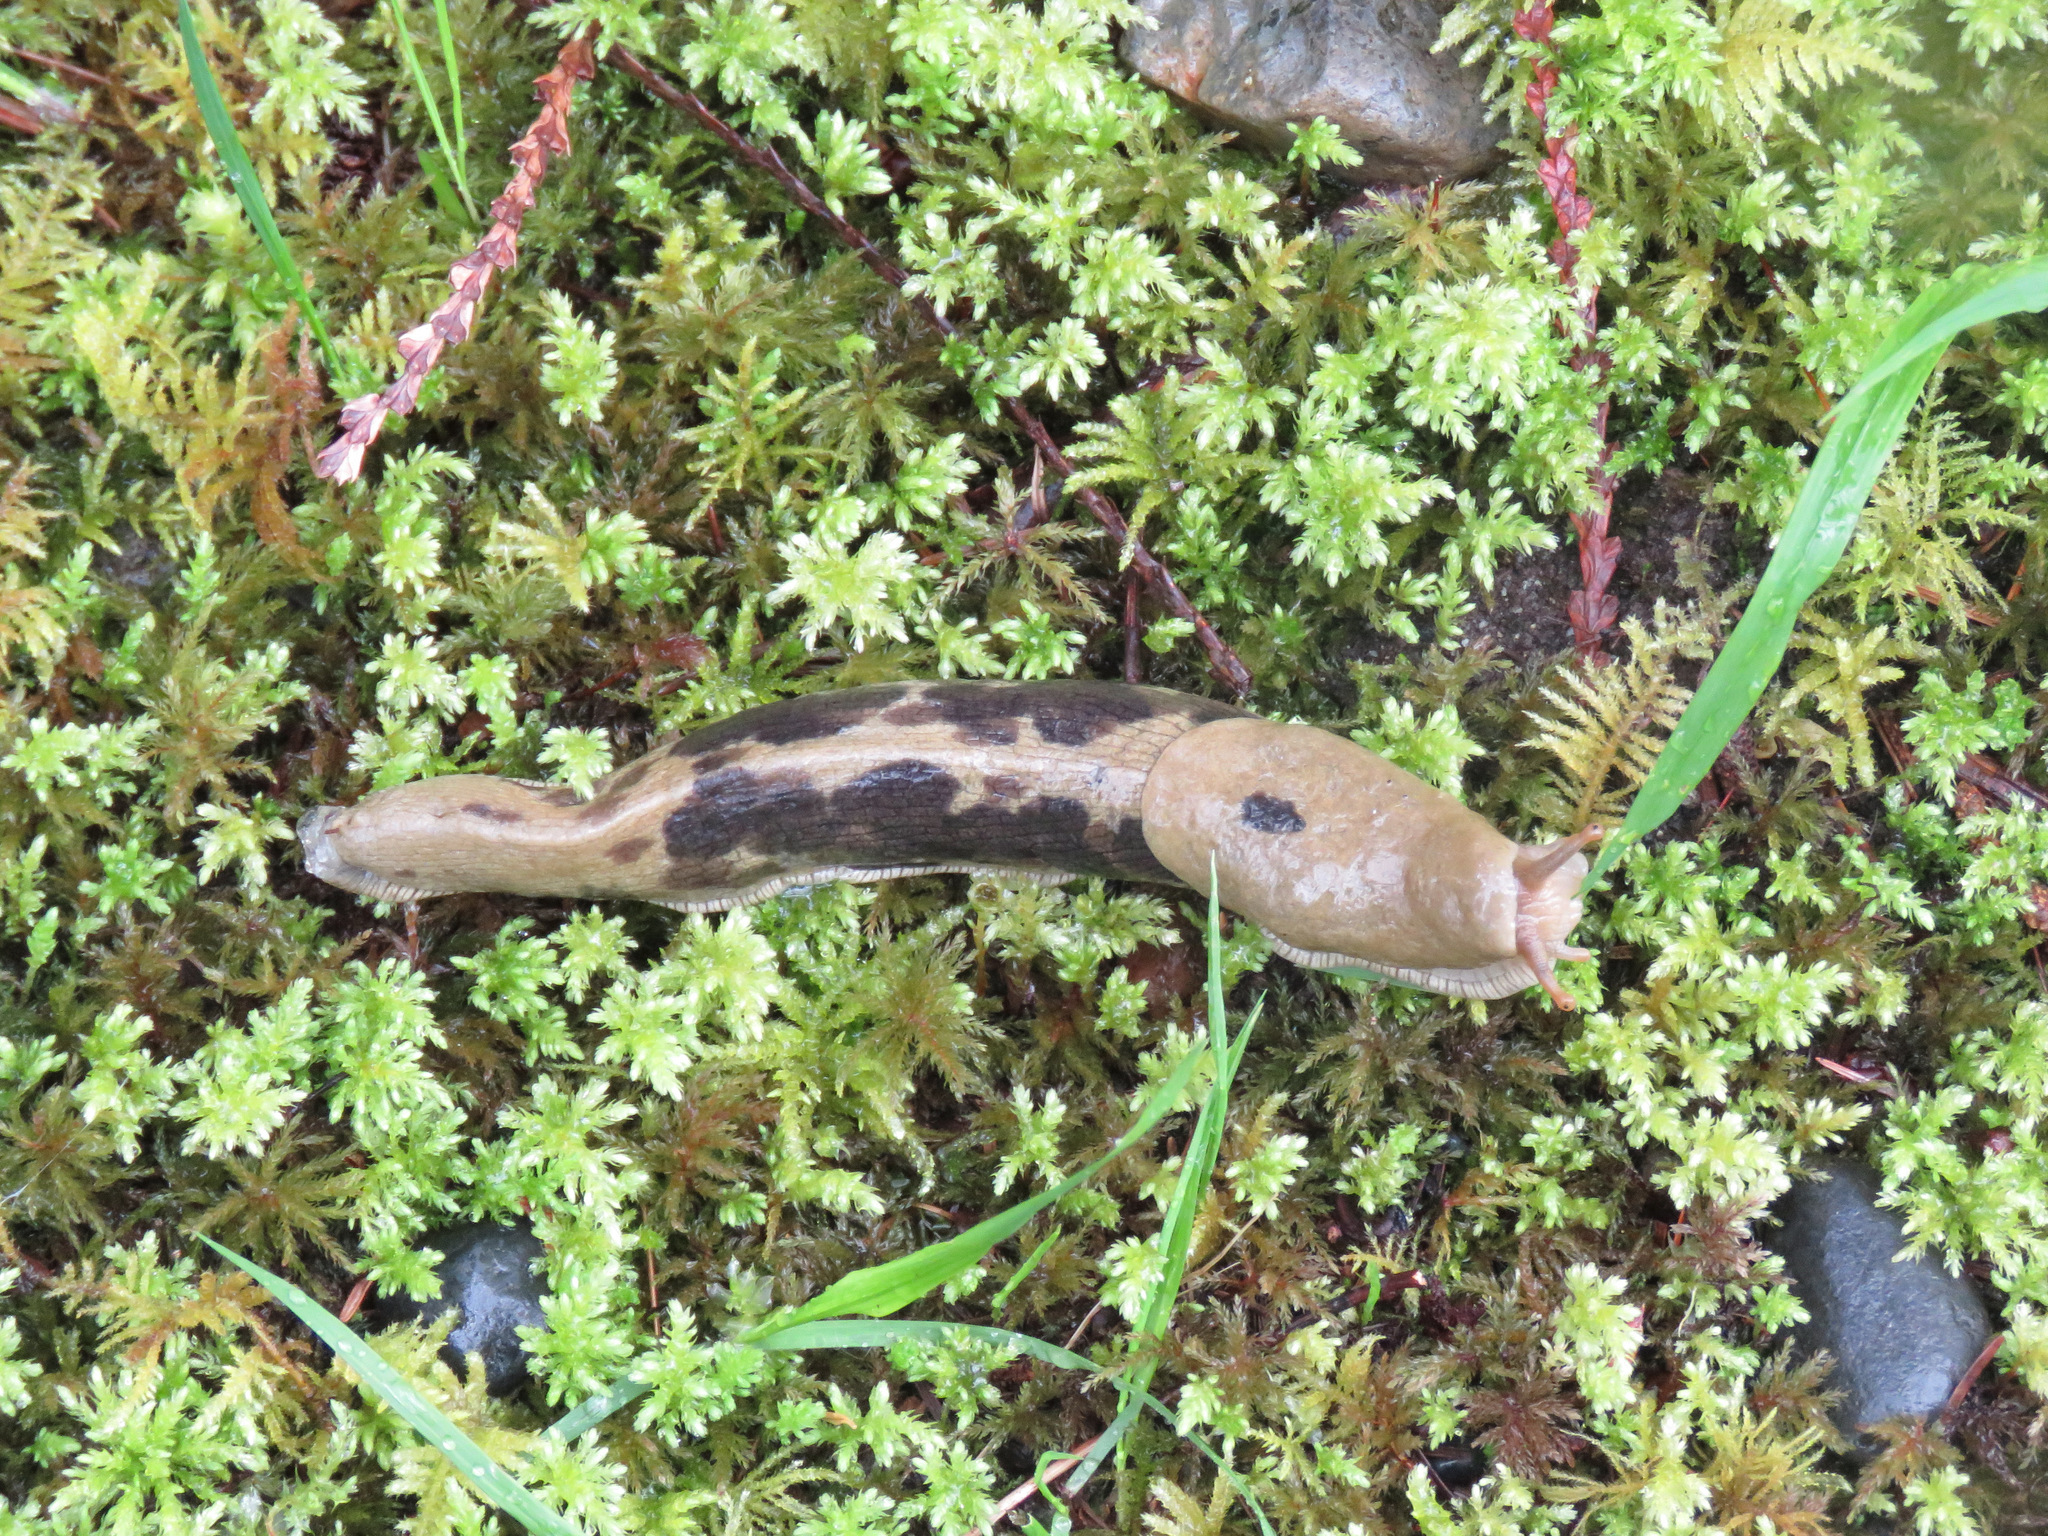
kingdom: Animalia
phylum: Mollusca
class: Gastropoda
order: Stylommatophora
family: Ariolimacidae
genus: Ariolimax
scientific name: Ariolimax columbianus
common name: Pacific banana slug
